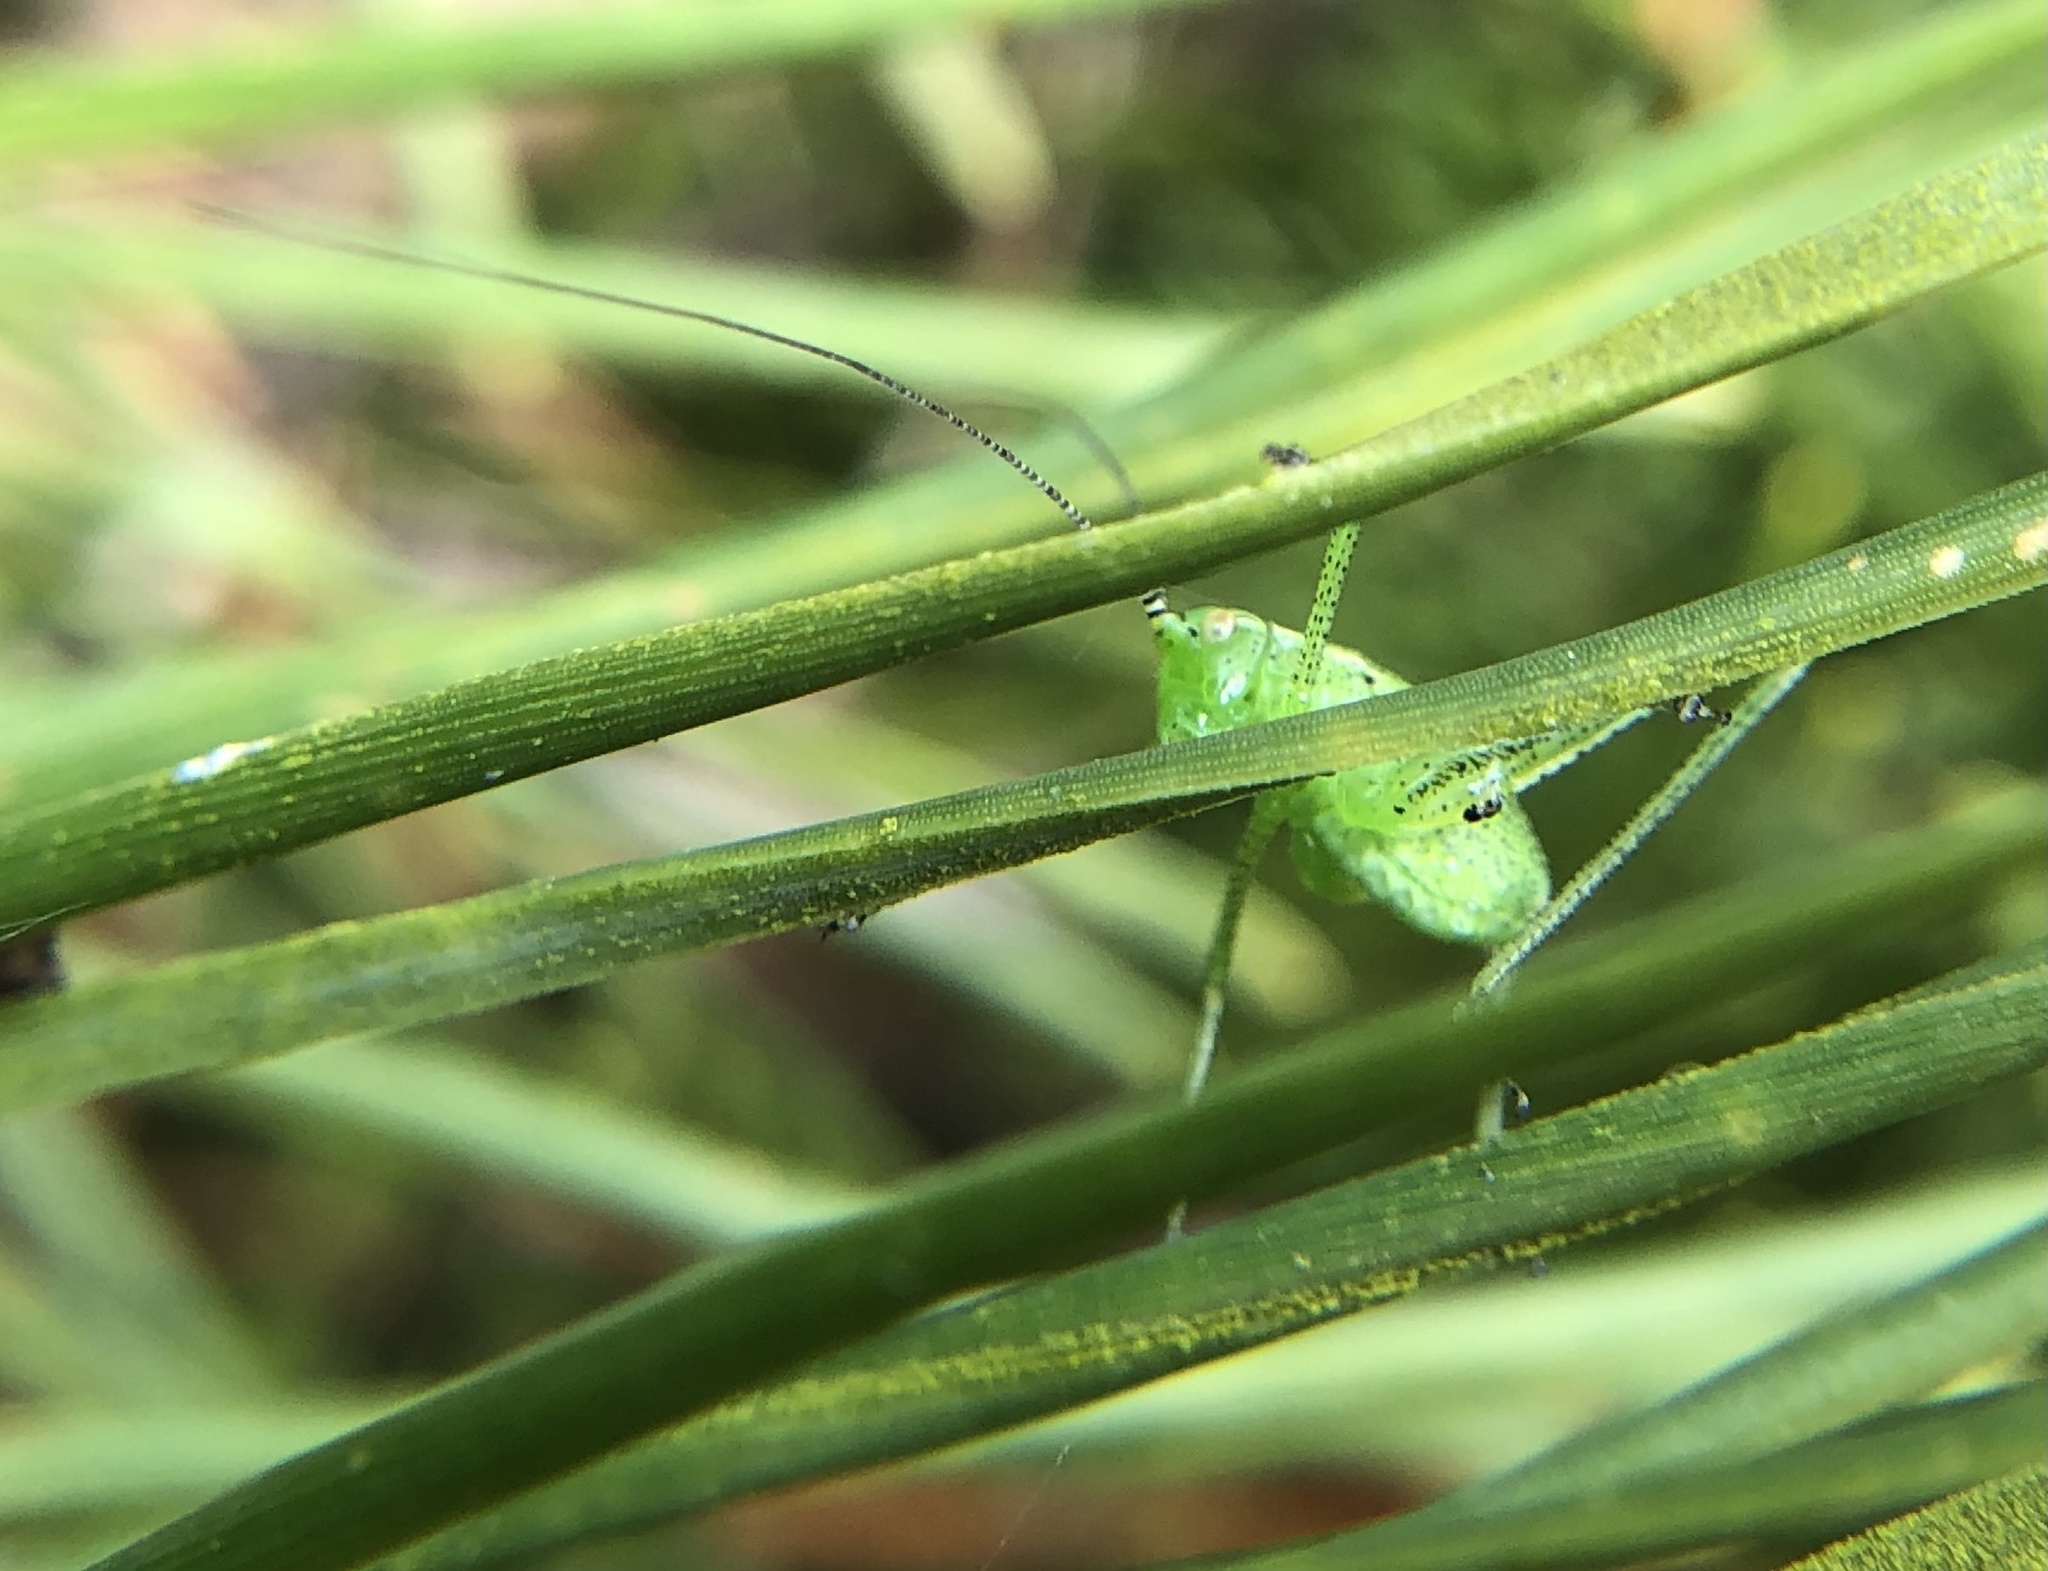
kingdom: Animalia
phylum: Arthropoda
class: Insecta
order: Orthoptera
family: Tettigoniidae
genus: Leptophyes
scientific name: Leptophyes punctatissima
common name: Speckled bush-cricket
